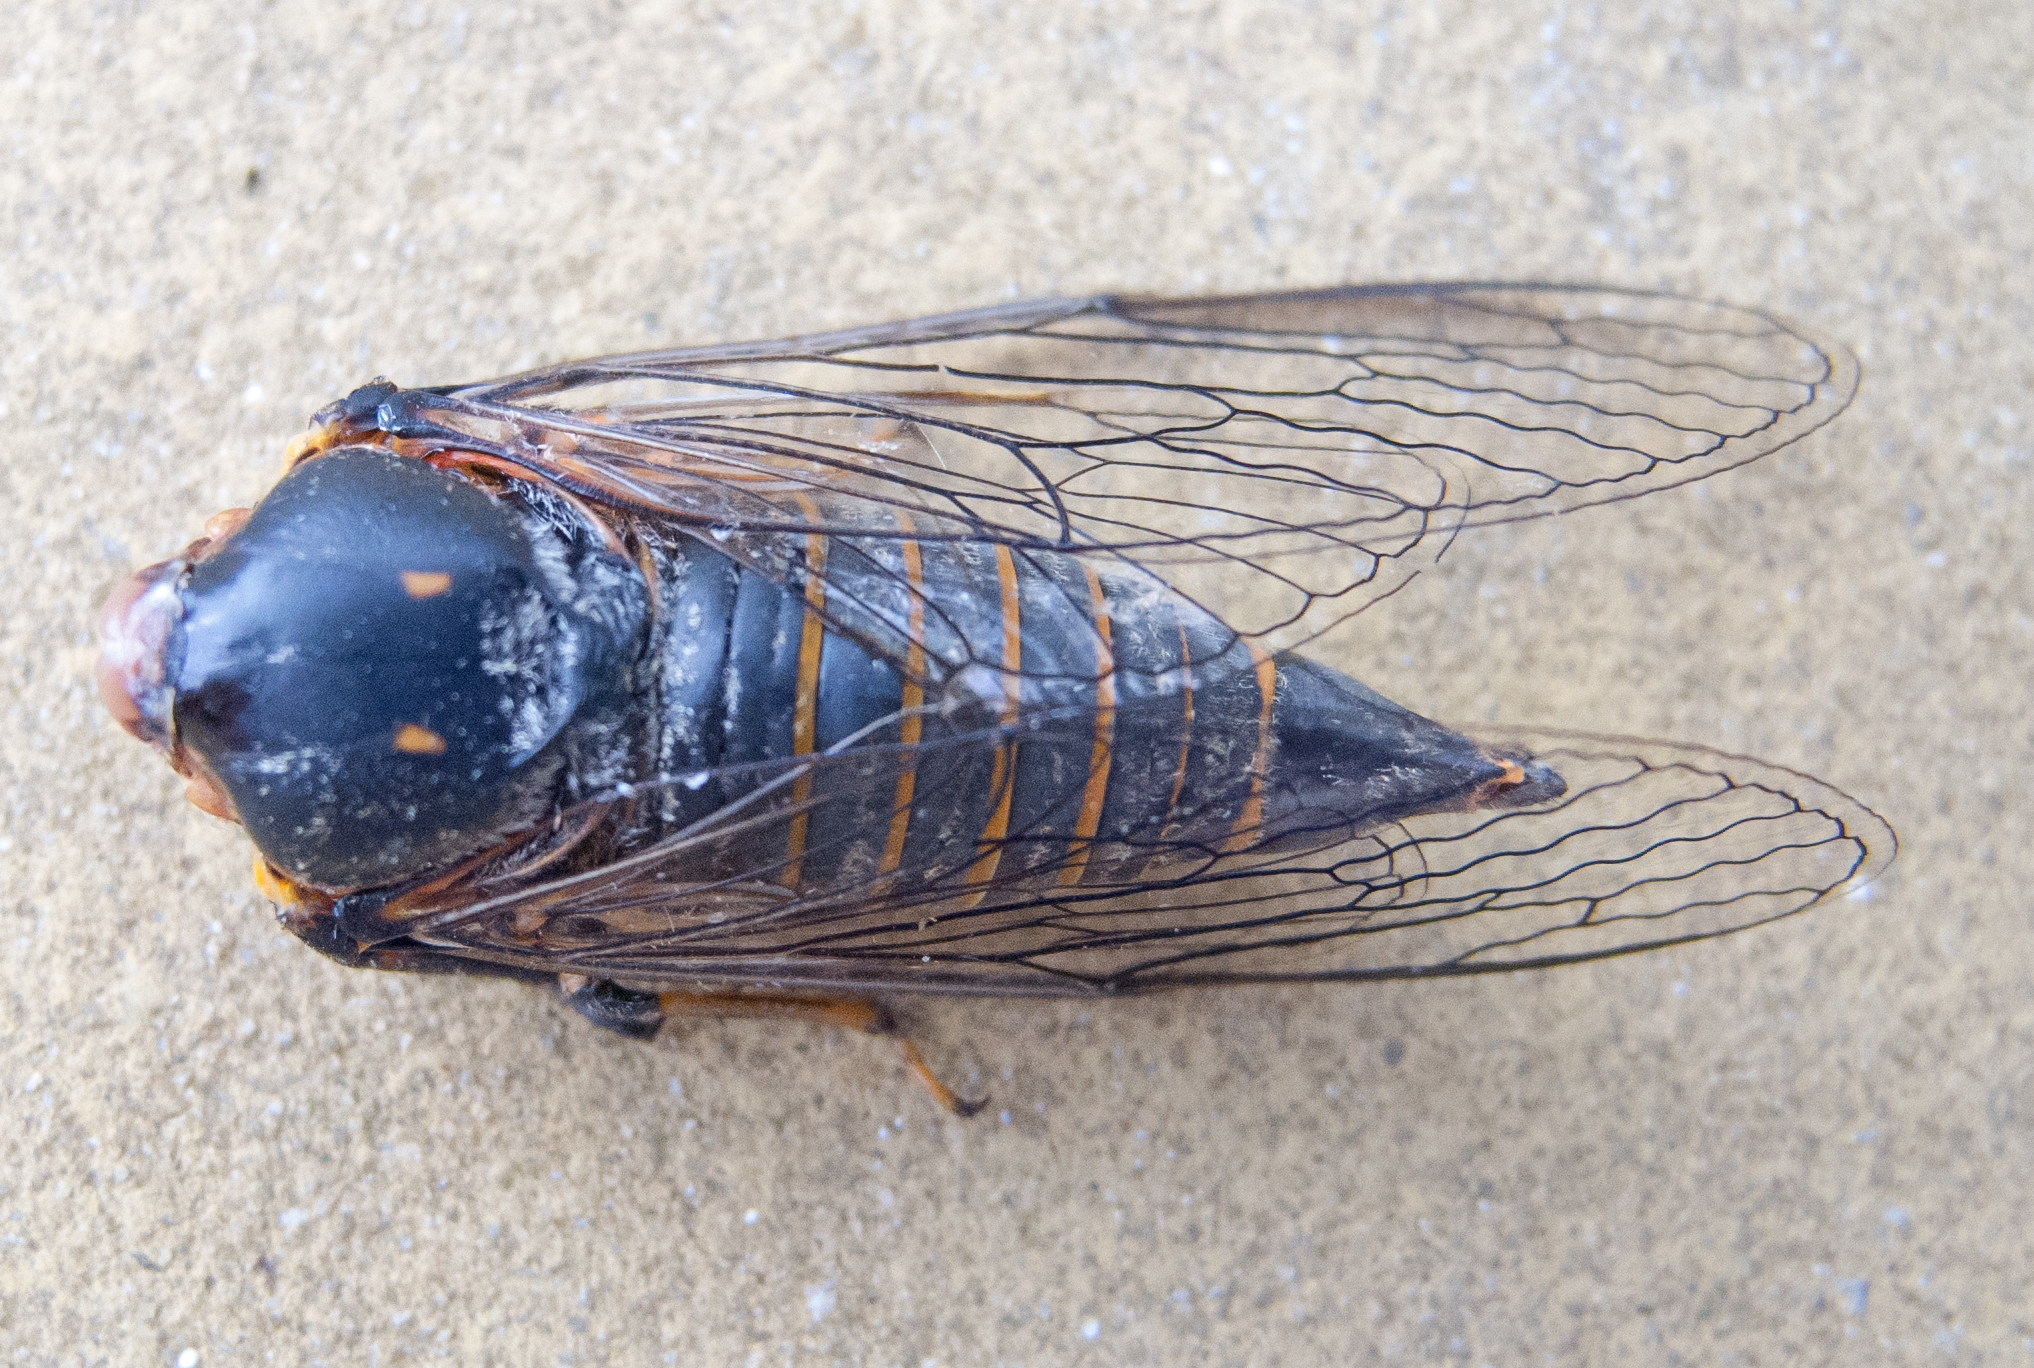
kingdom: Animalia
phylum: Arthropoda
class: Insecta
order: Hemiptera
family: Cicadidae
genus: Dimissalna
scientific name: Dimissalna dimissa
